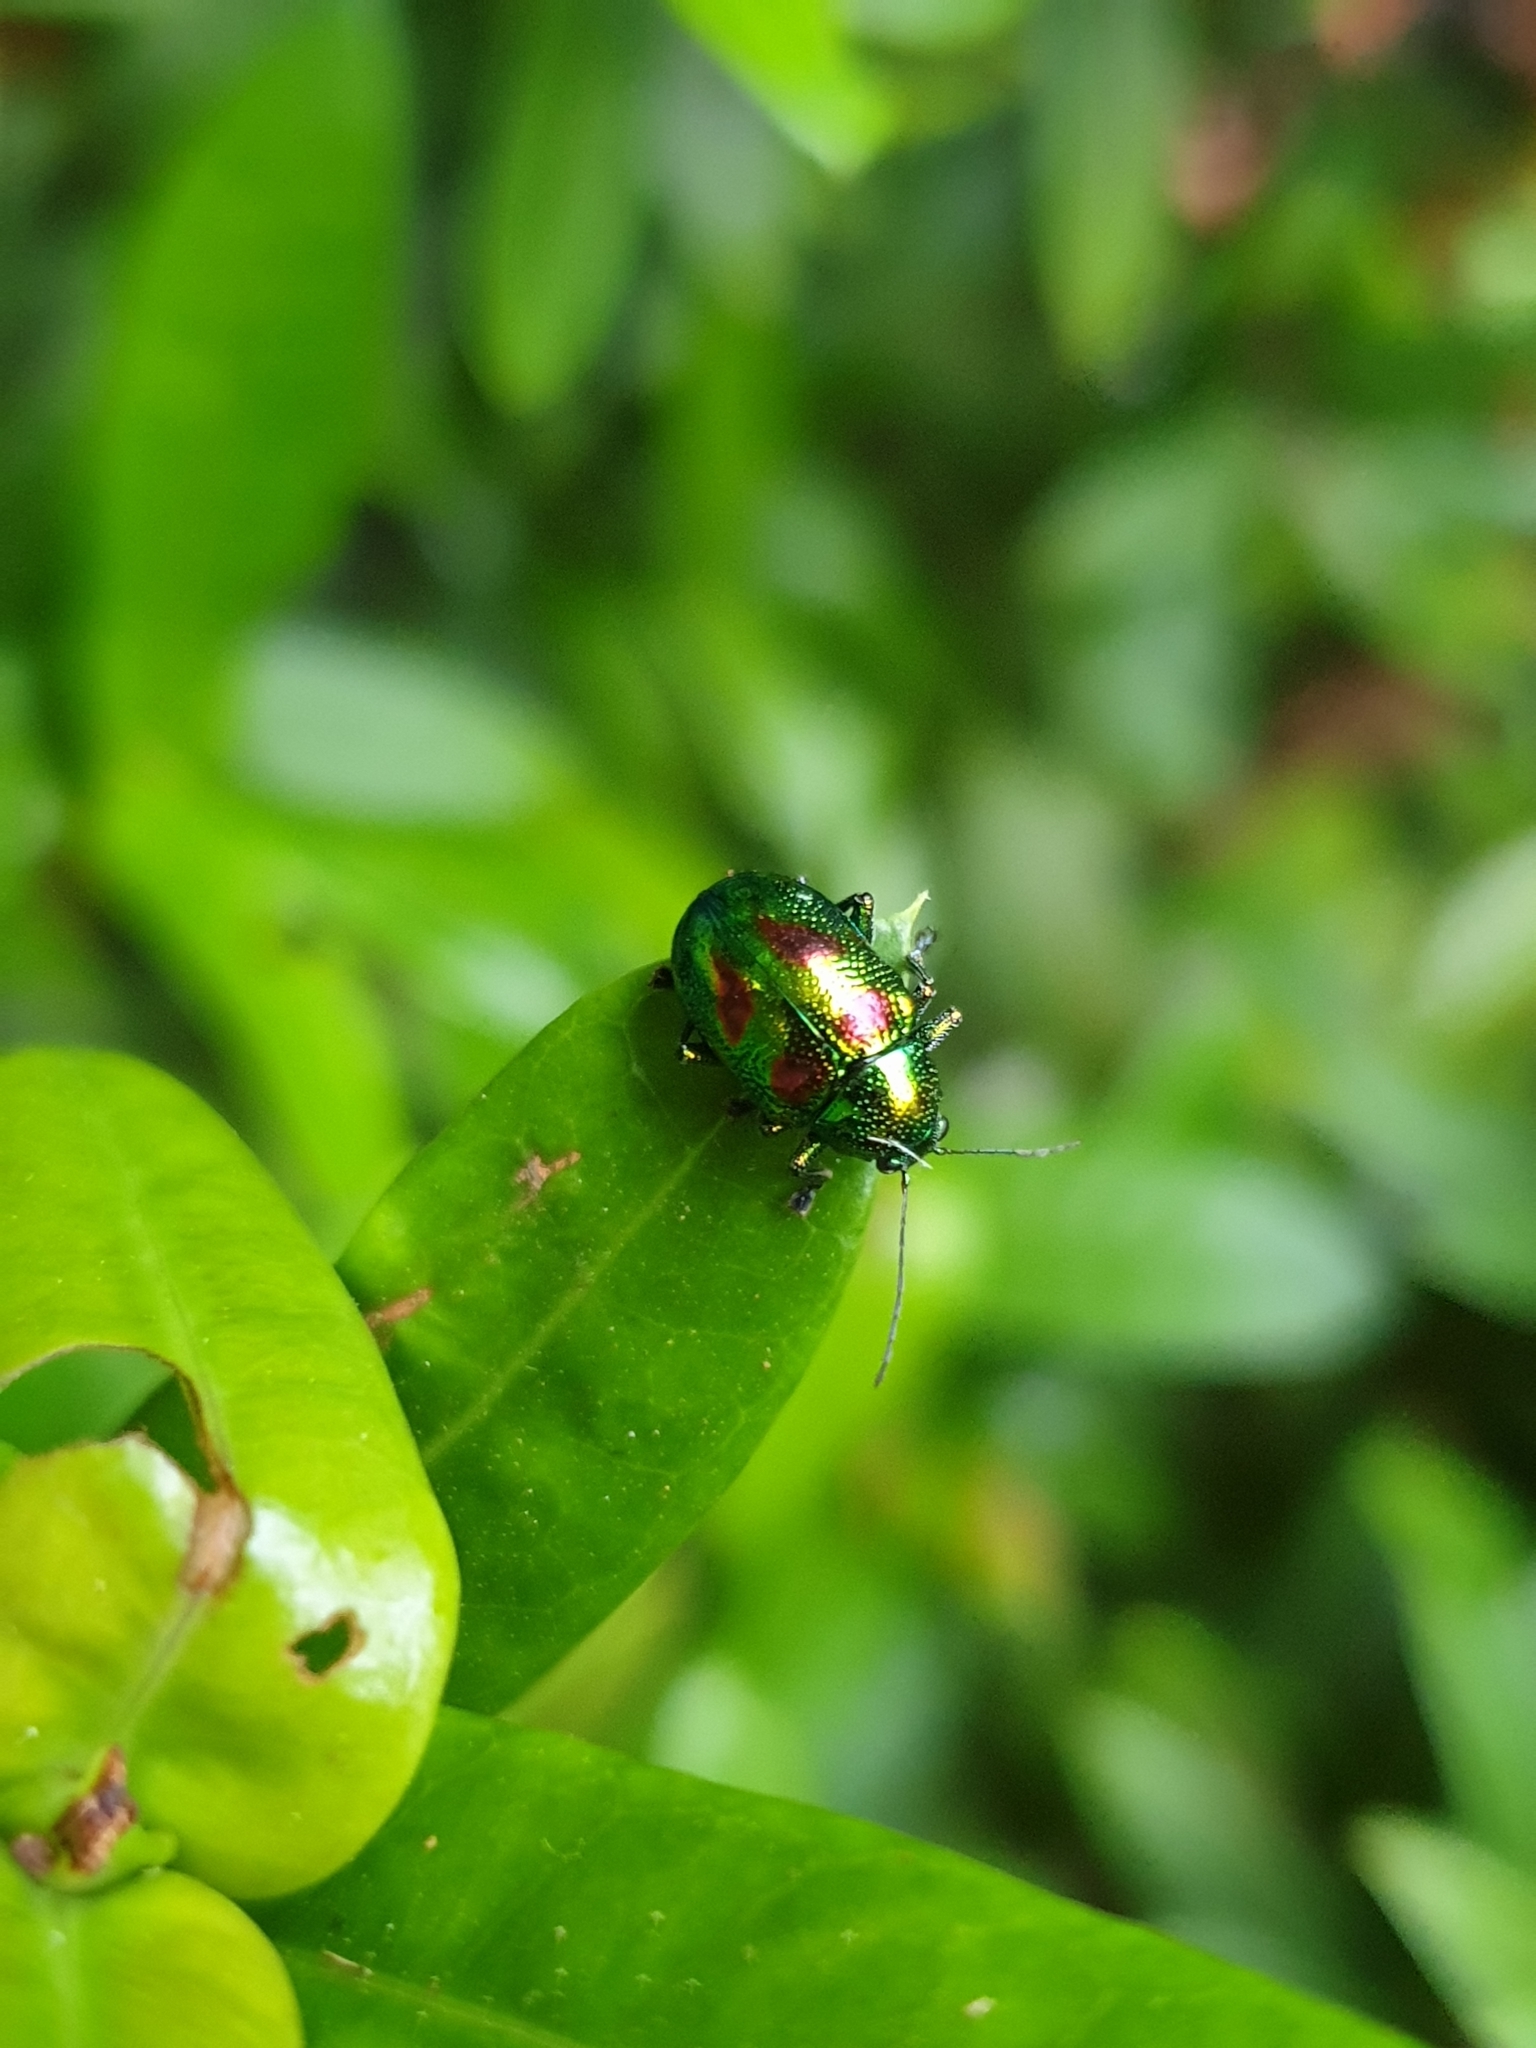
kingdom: Animalia
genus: Dermorhytis
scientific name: Dermorhytis
